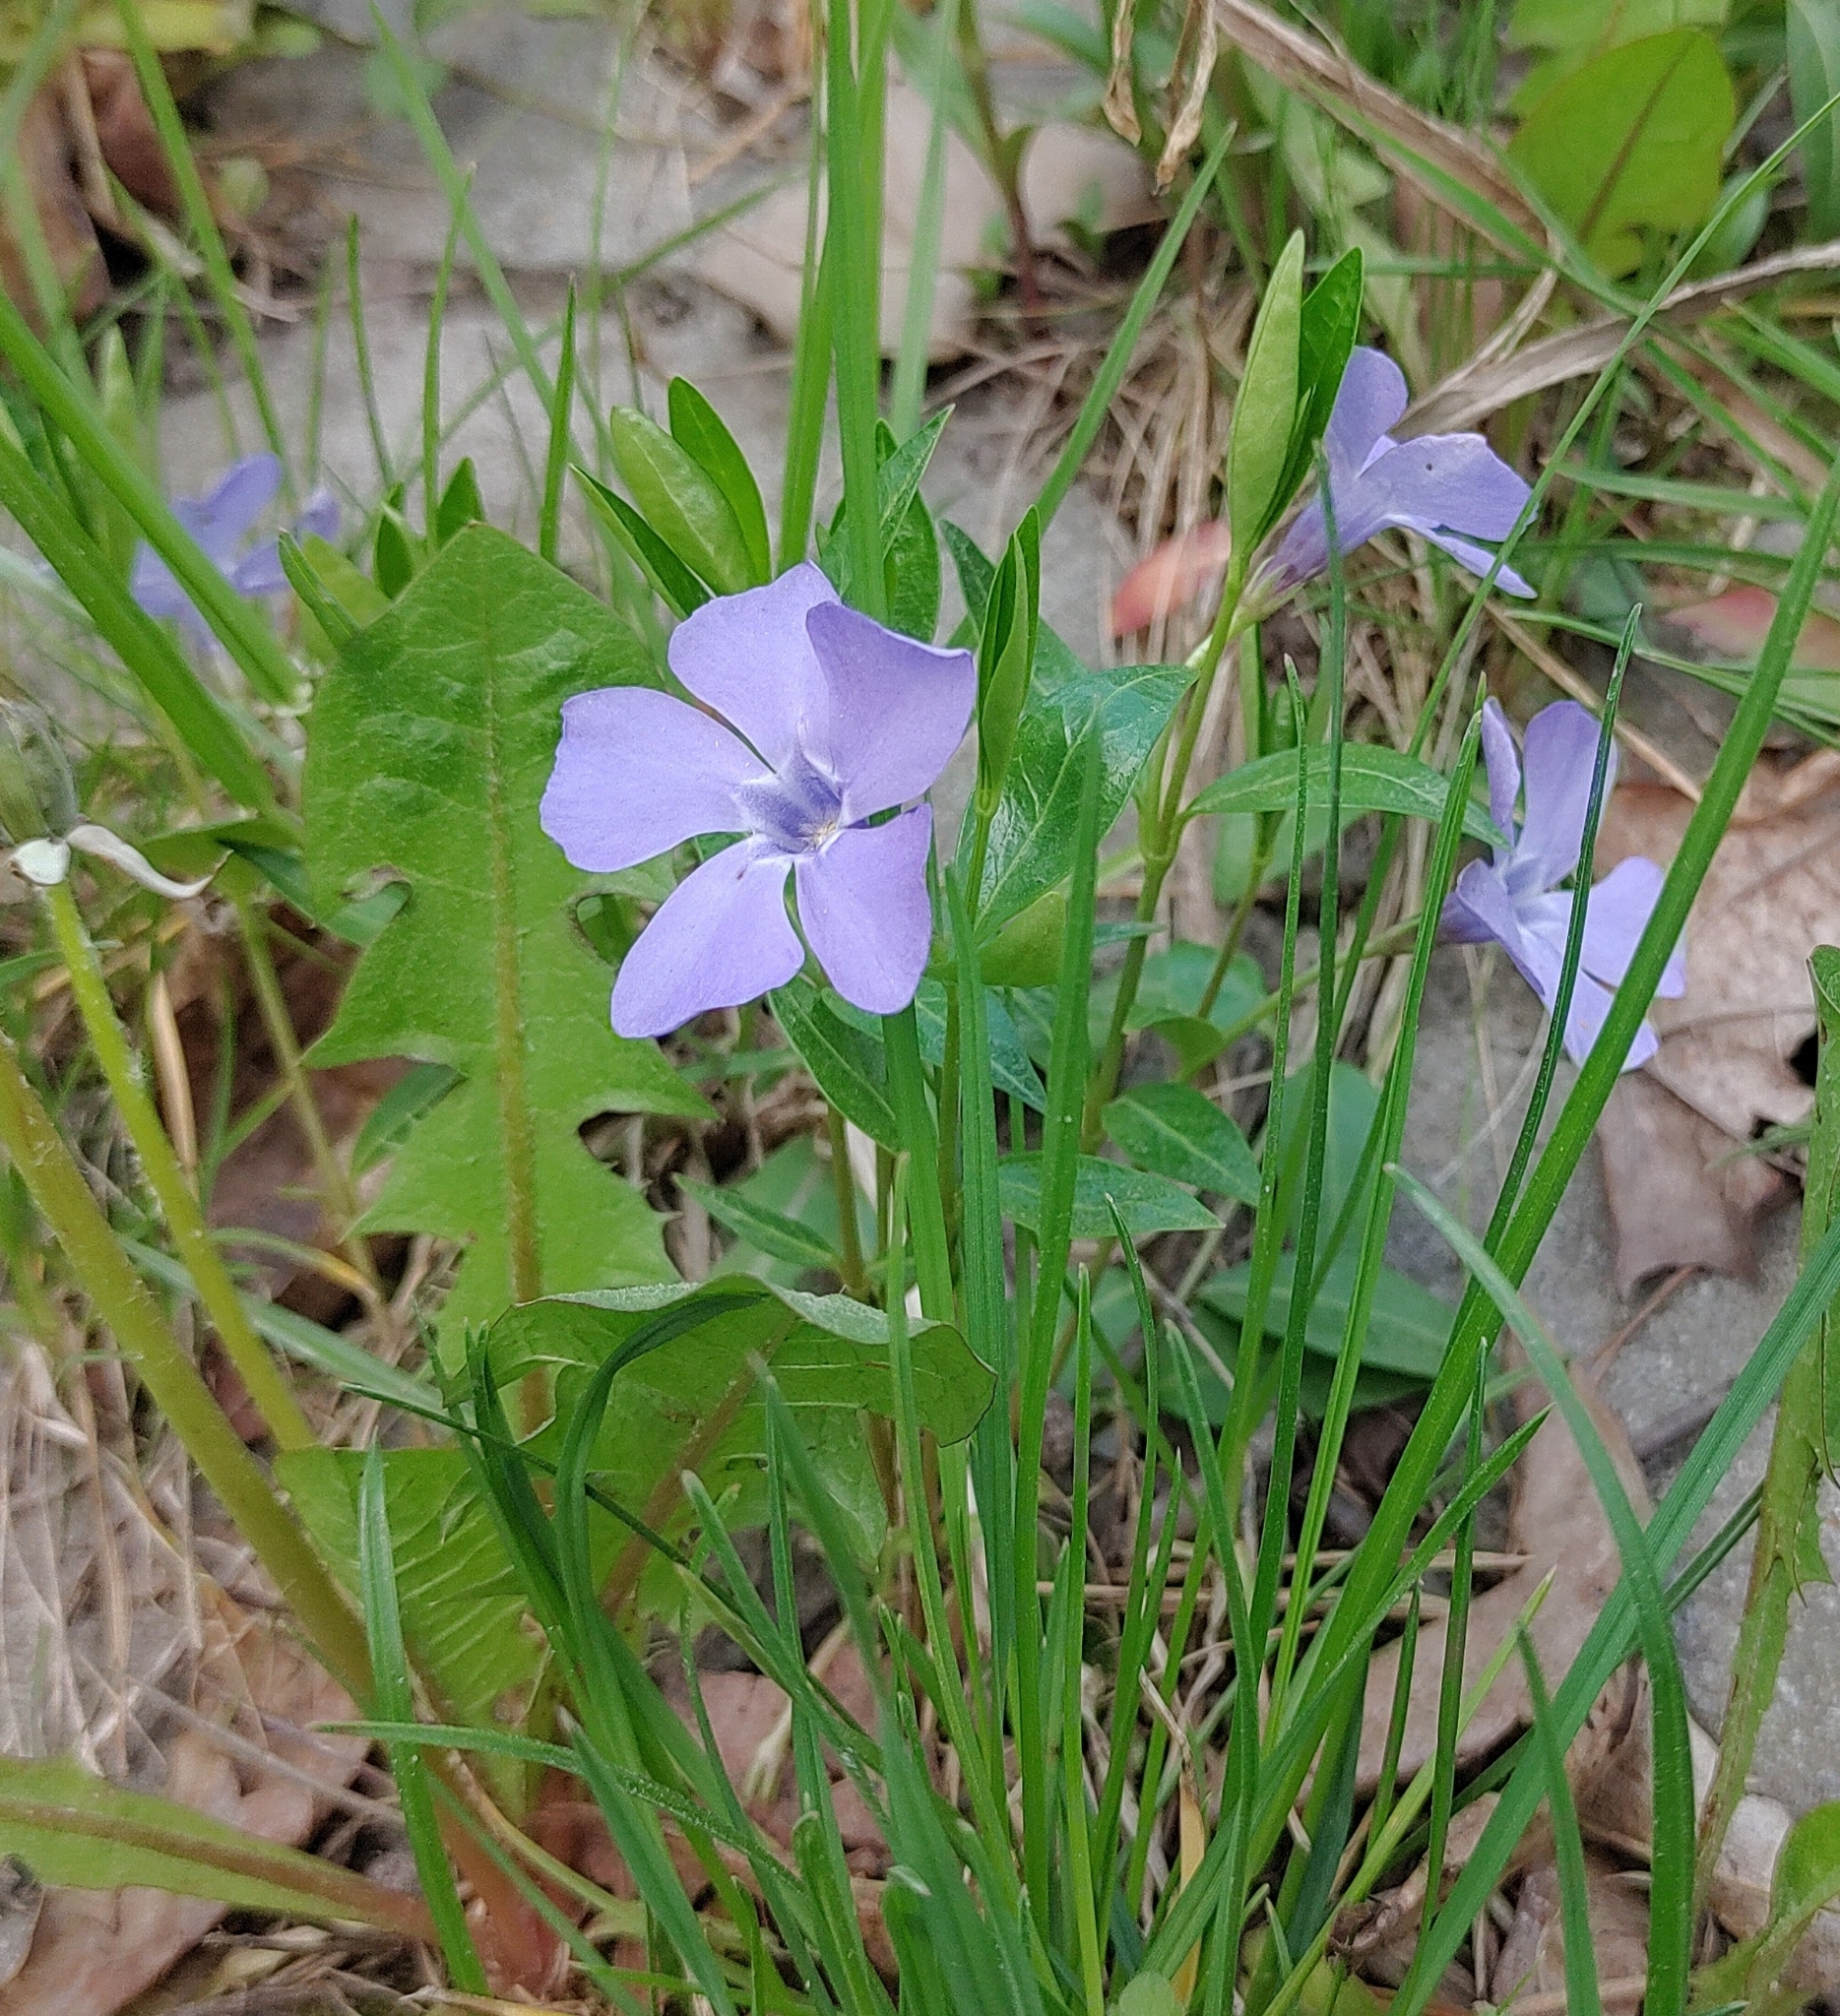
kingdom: Plantae
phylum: Tracheophyta
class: Magnoliopsida
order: Gentianales
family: Apocynaceae
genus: Vinca
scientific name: Vinca minor
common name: Lesser periwinkle
